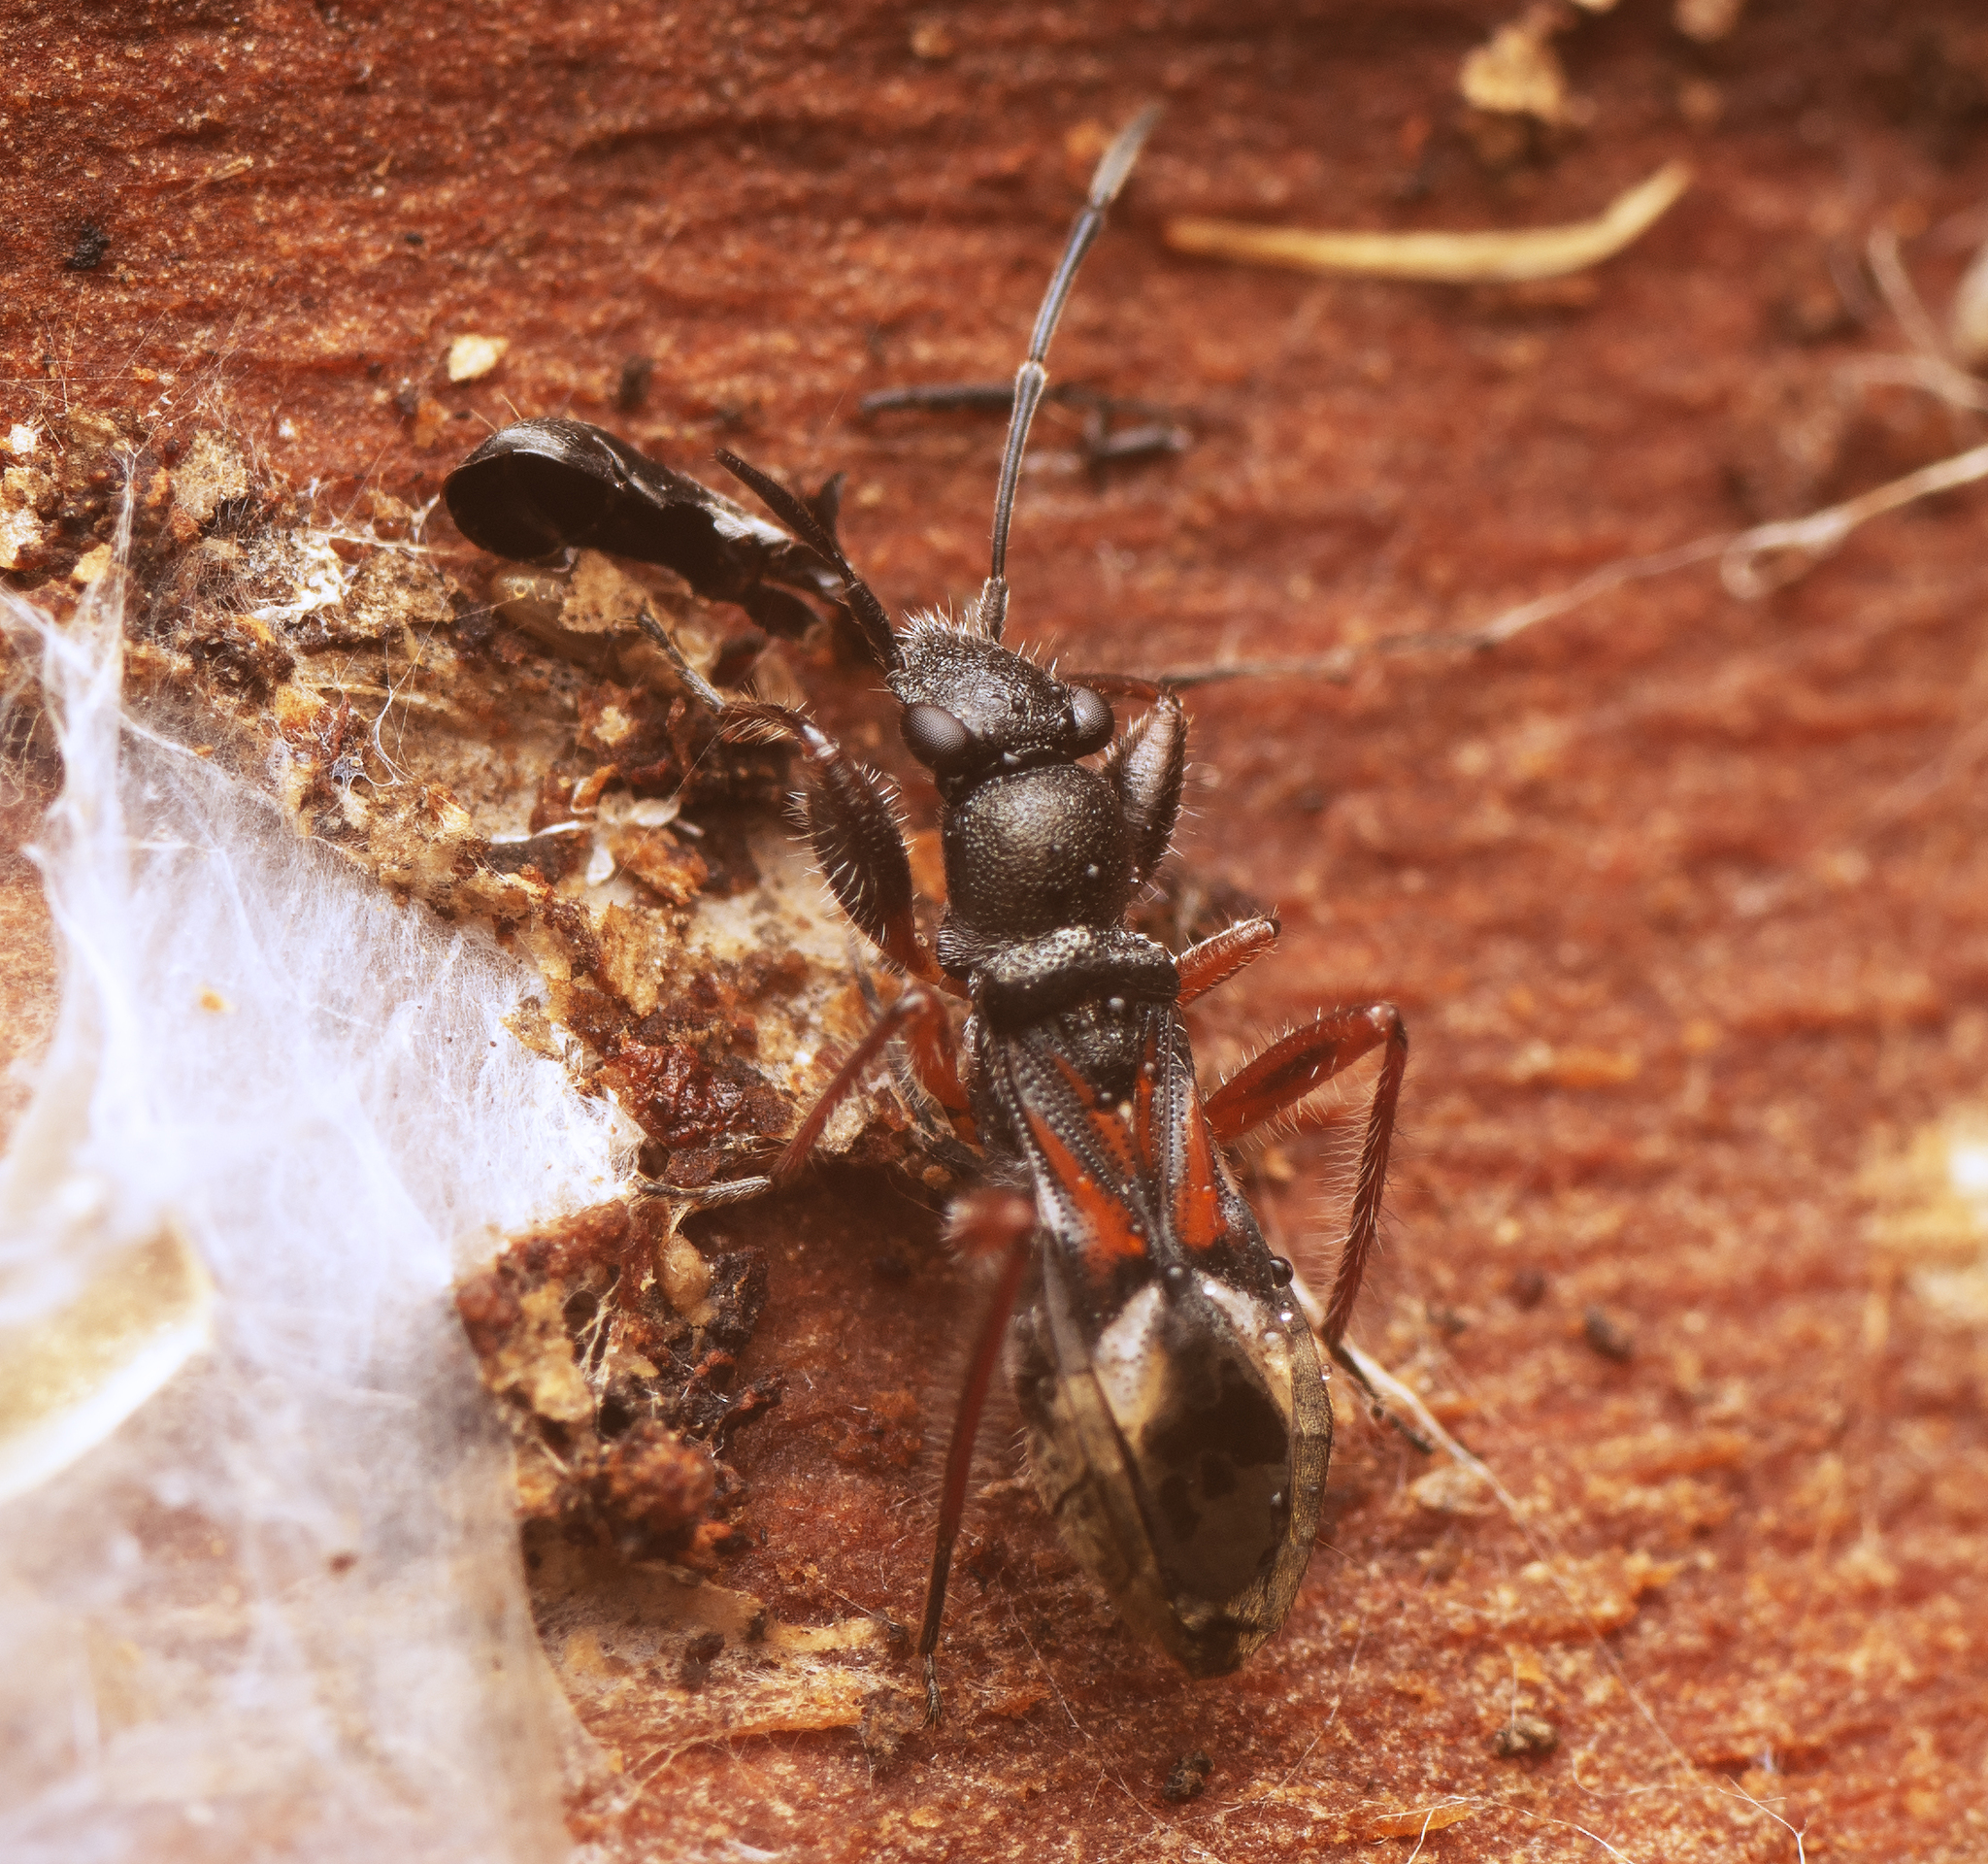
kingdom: Animalia
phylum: Arthropoda
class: Insecta
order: Hemiptera
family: Rhyparochromidae
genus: Daerlac
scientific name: Daerlac cephalotes
